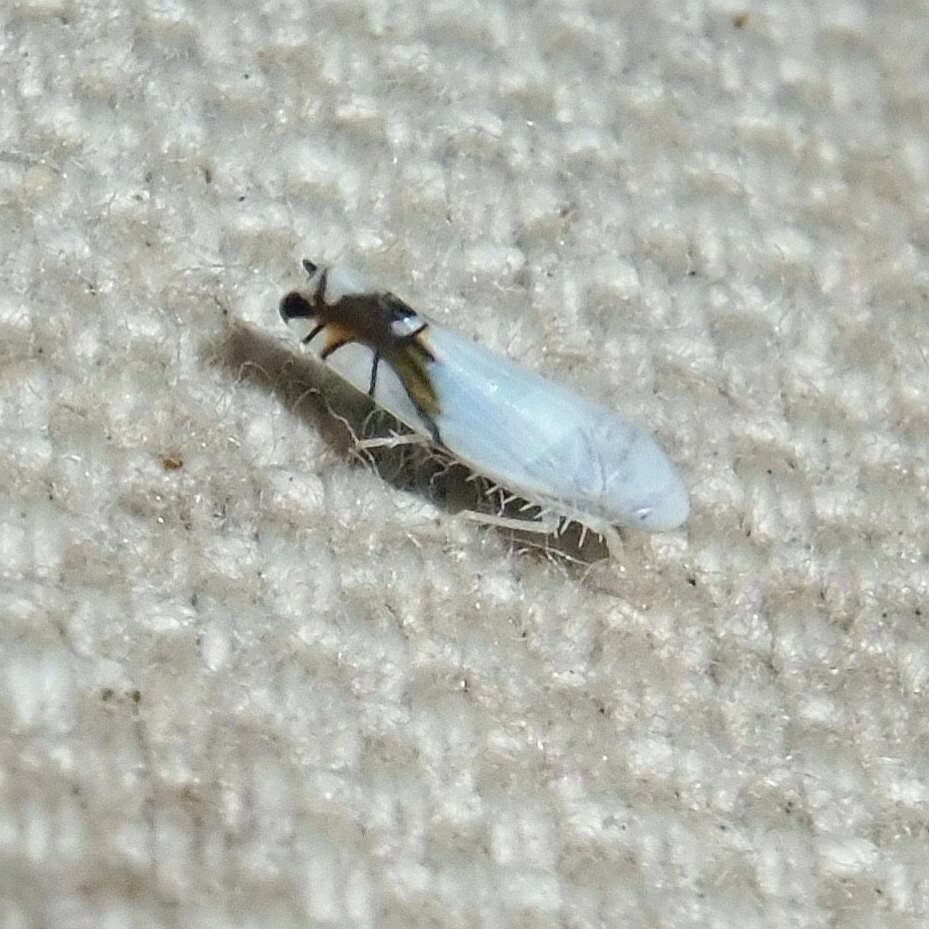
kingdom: Animalia
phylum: Arthropoda
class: Insecta
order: Hemiptera
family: Cicadellidae
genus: Aguriahana
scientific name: Aguriahana stellulata
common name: Leafhopper
